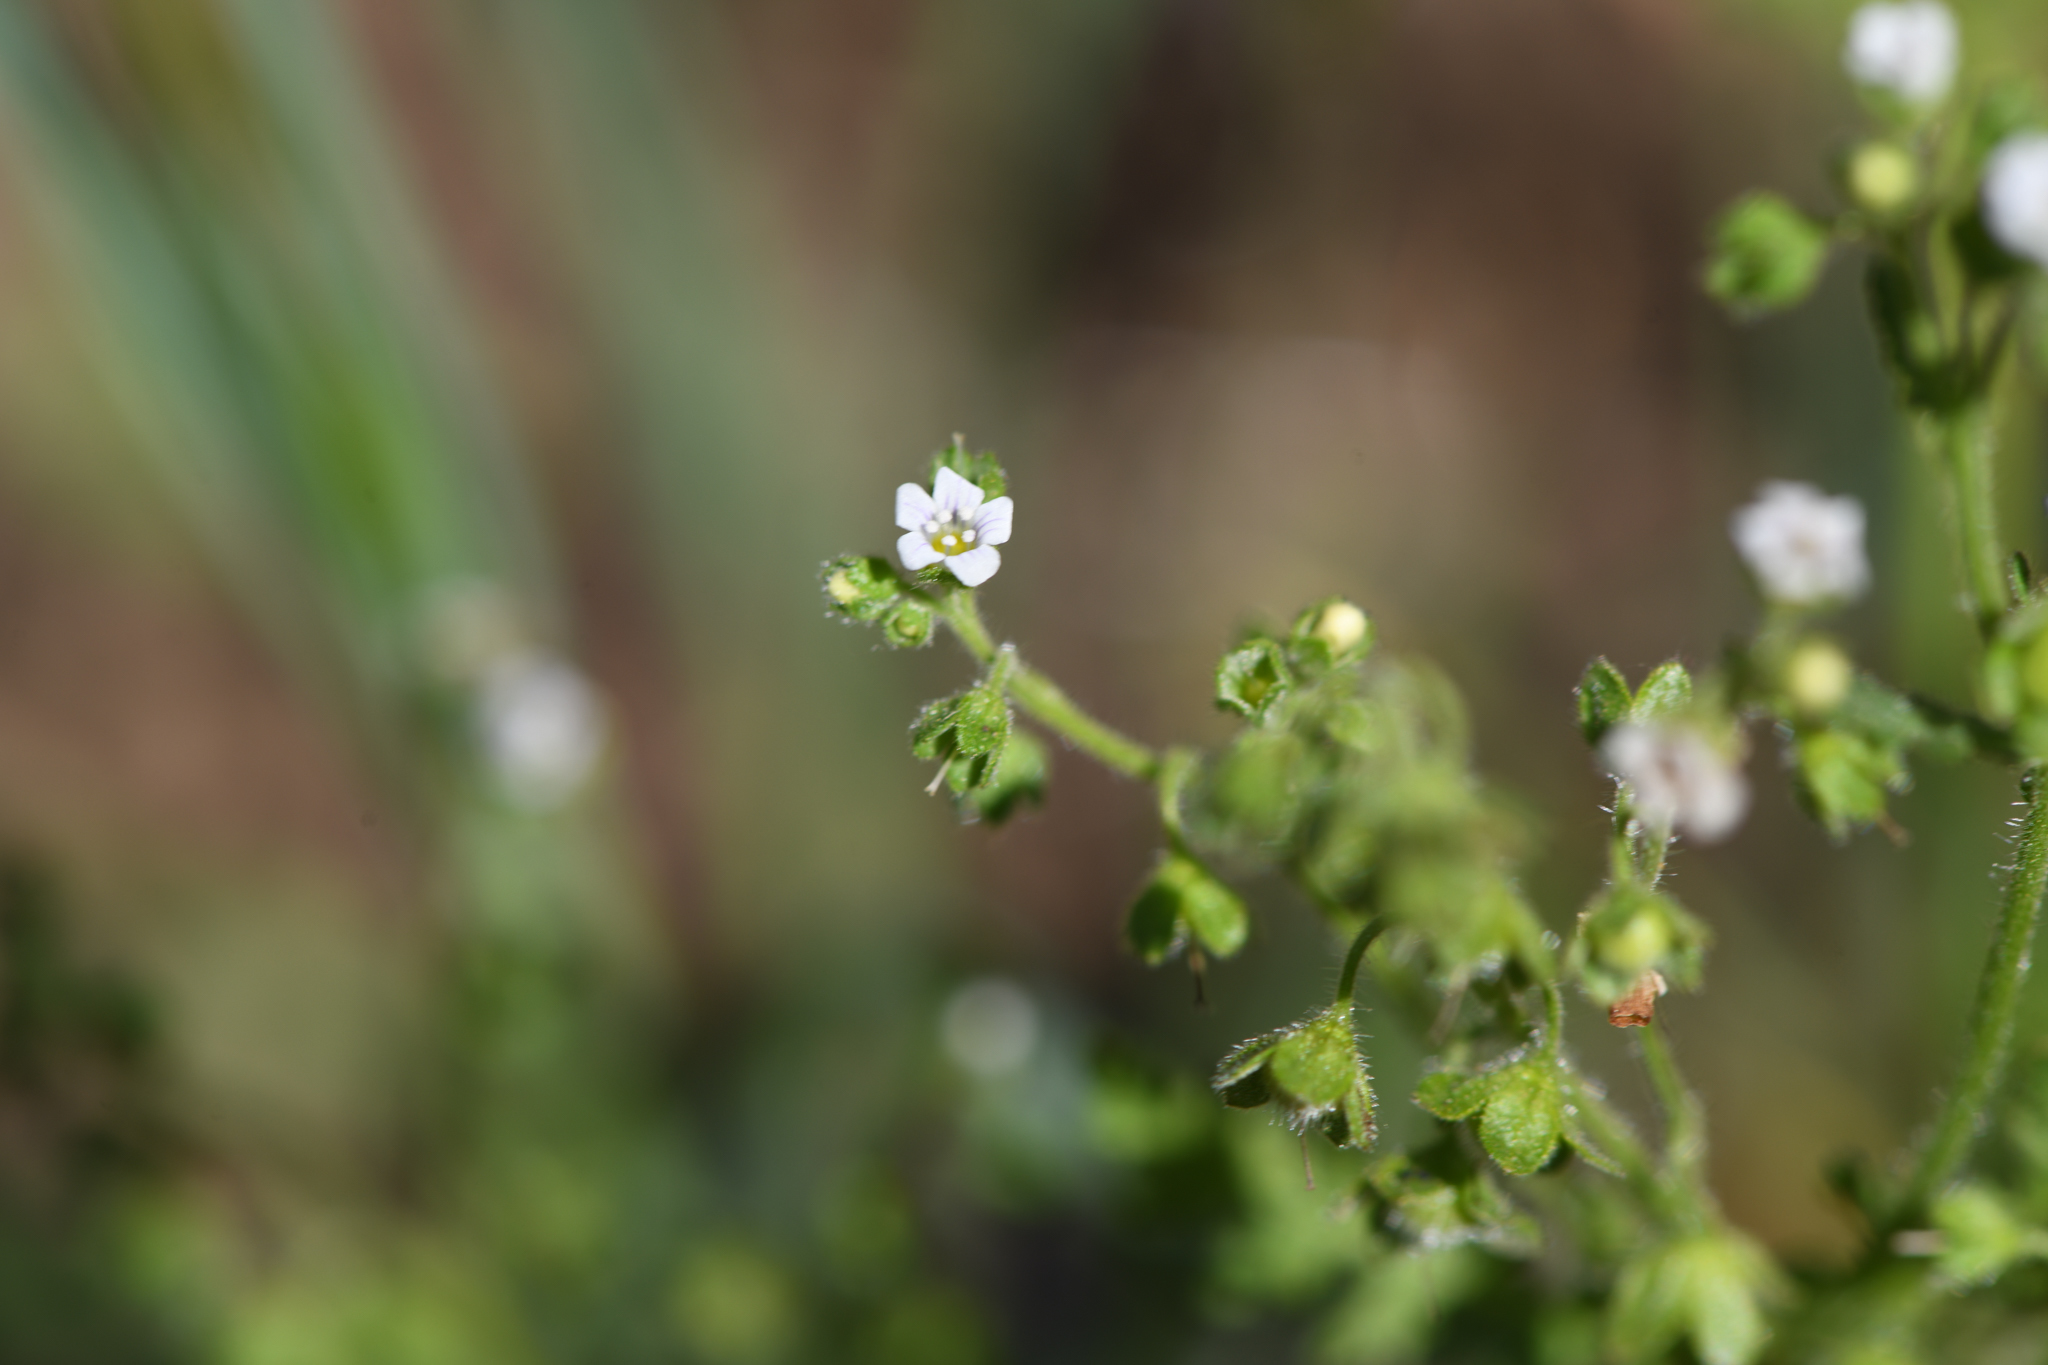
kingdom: Plantae
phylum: Tracheophyta
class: Magnoliopsida
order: Boraginales
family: Hydrophyllaceae
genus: Eucrypta
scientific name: Eucrypta chrysanthemifolia
